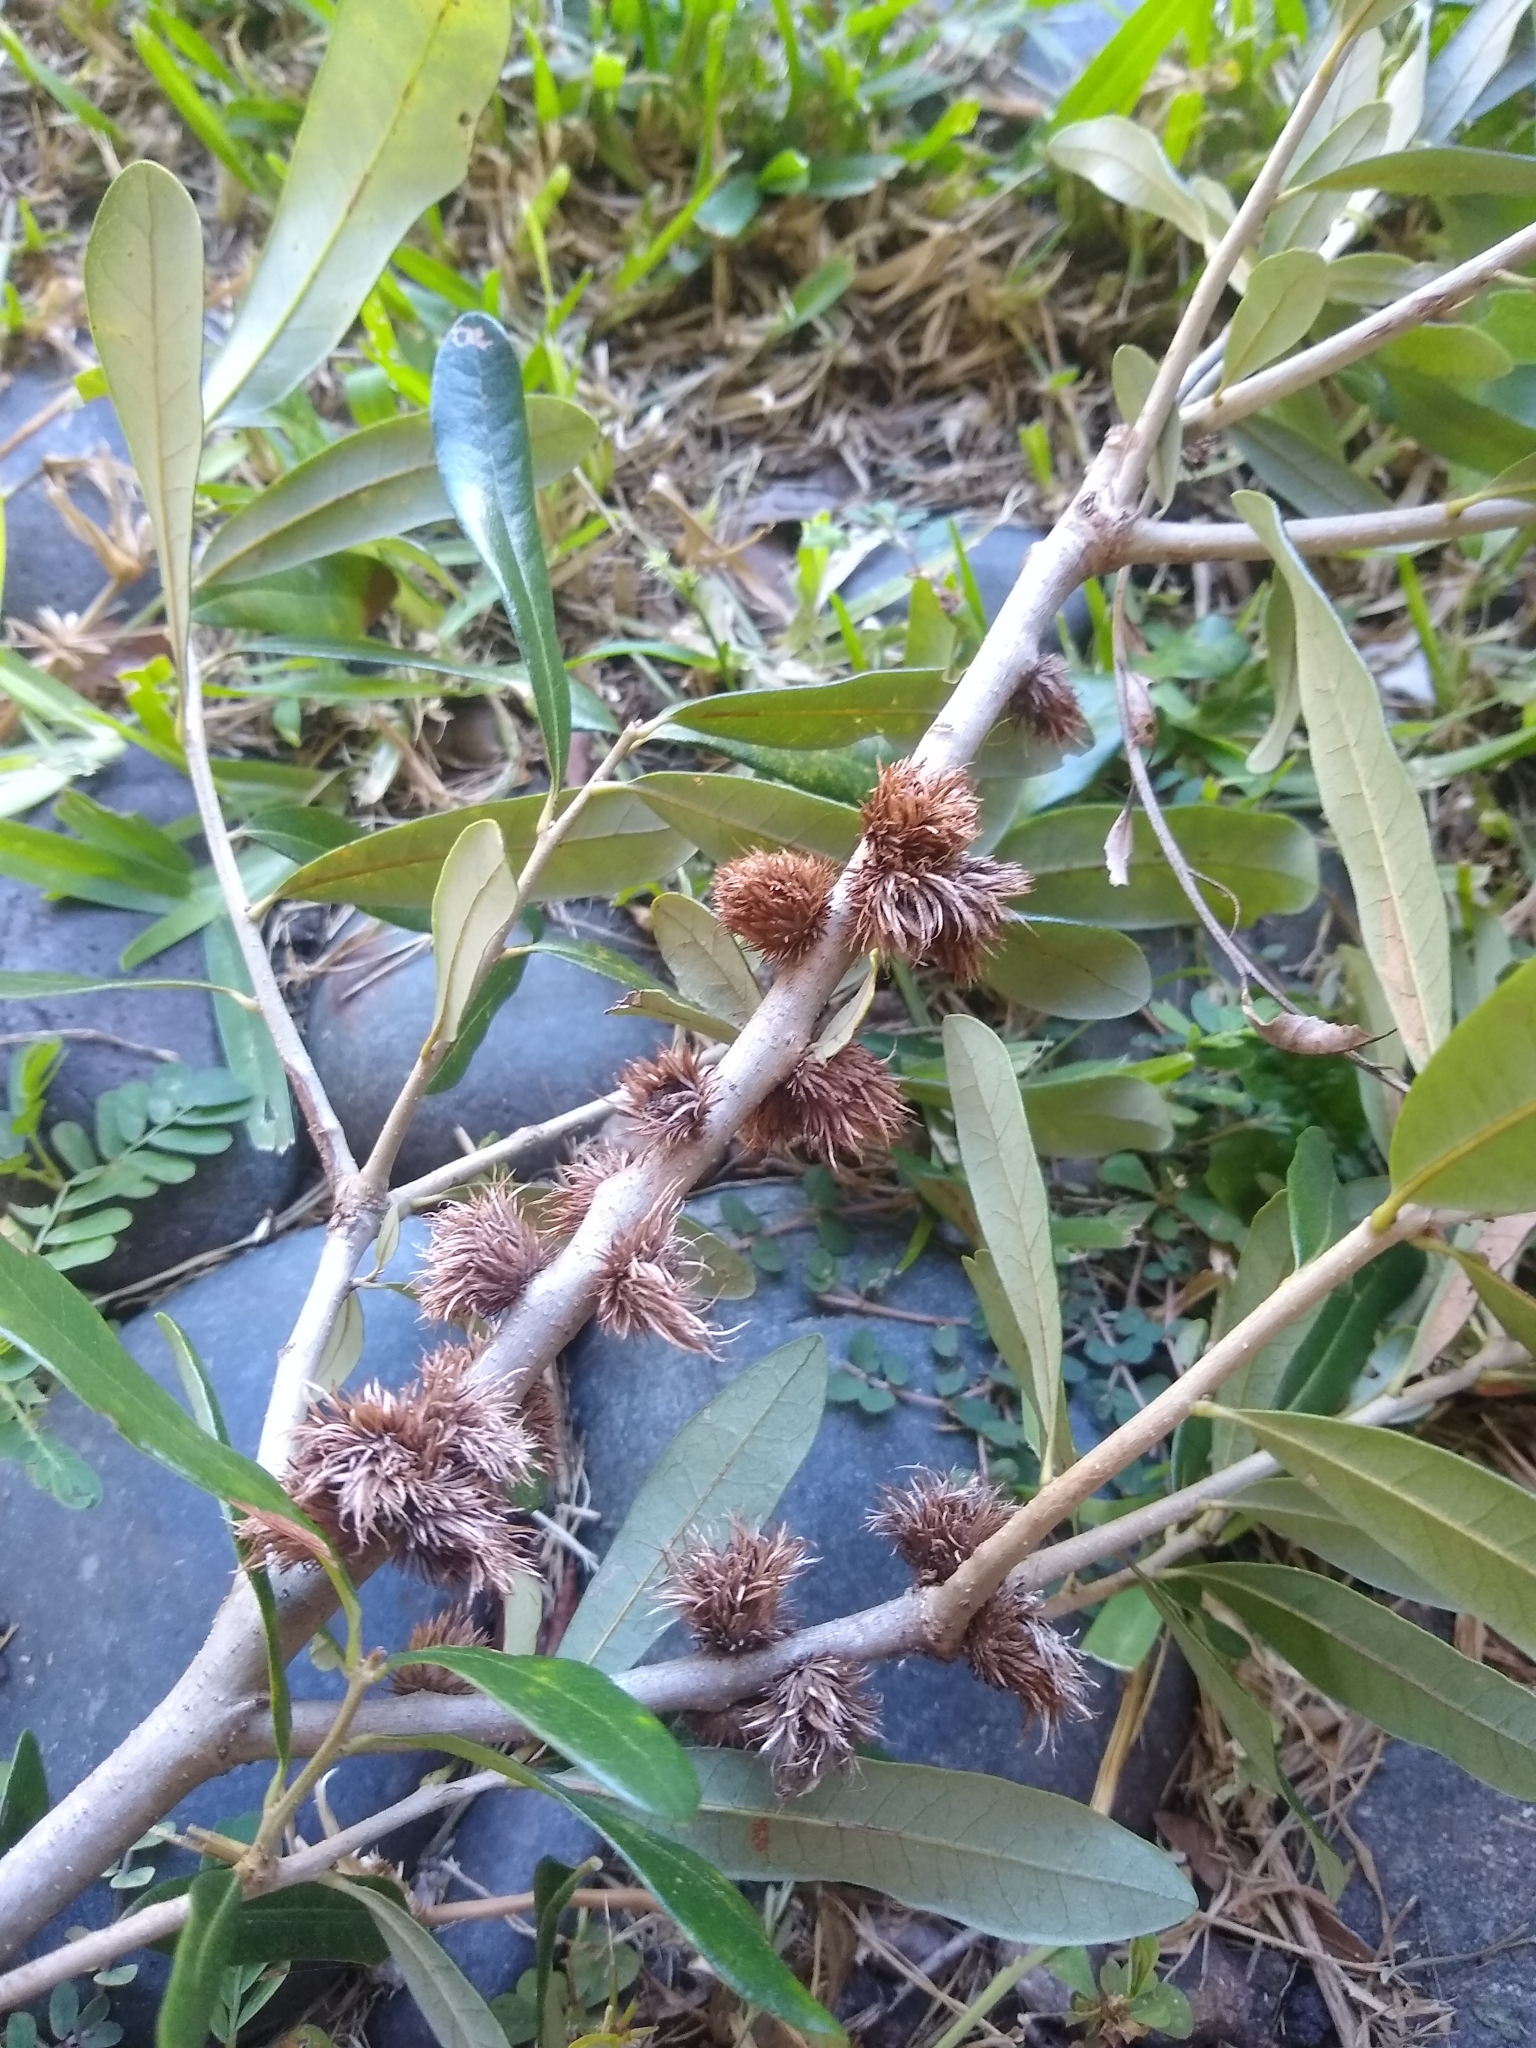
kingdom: Animalia
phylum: Arthropoda
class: Insecta
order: Hymenoptera
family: Cynipidae
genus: Andricus
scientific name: Andricus quercusfoliatus
